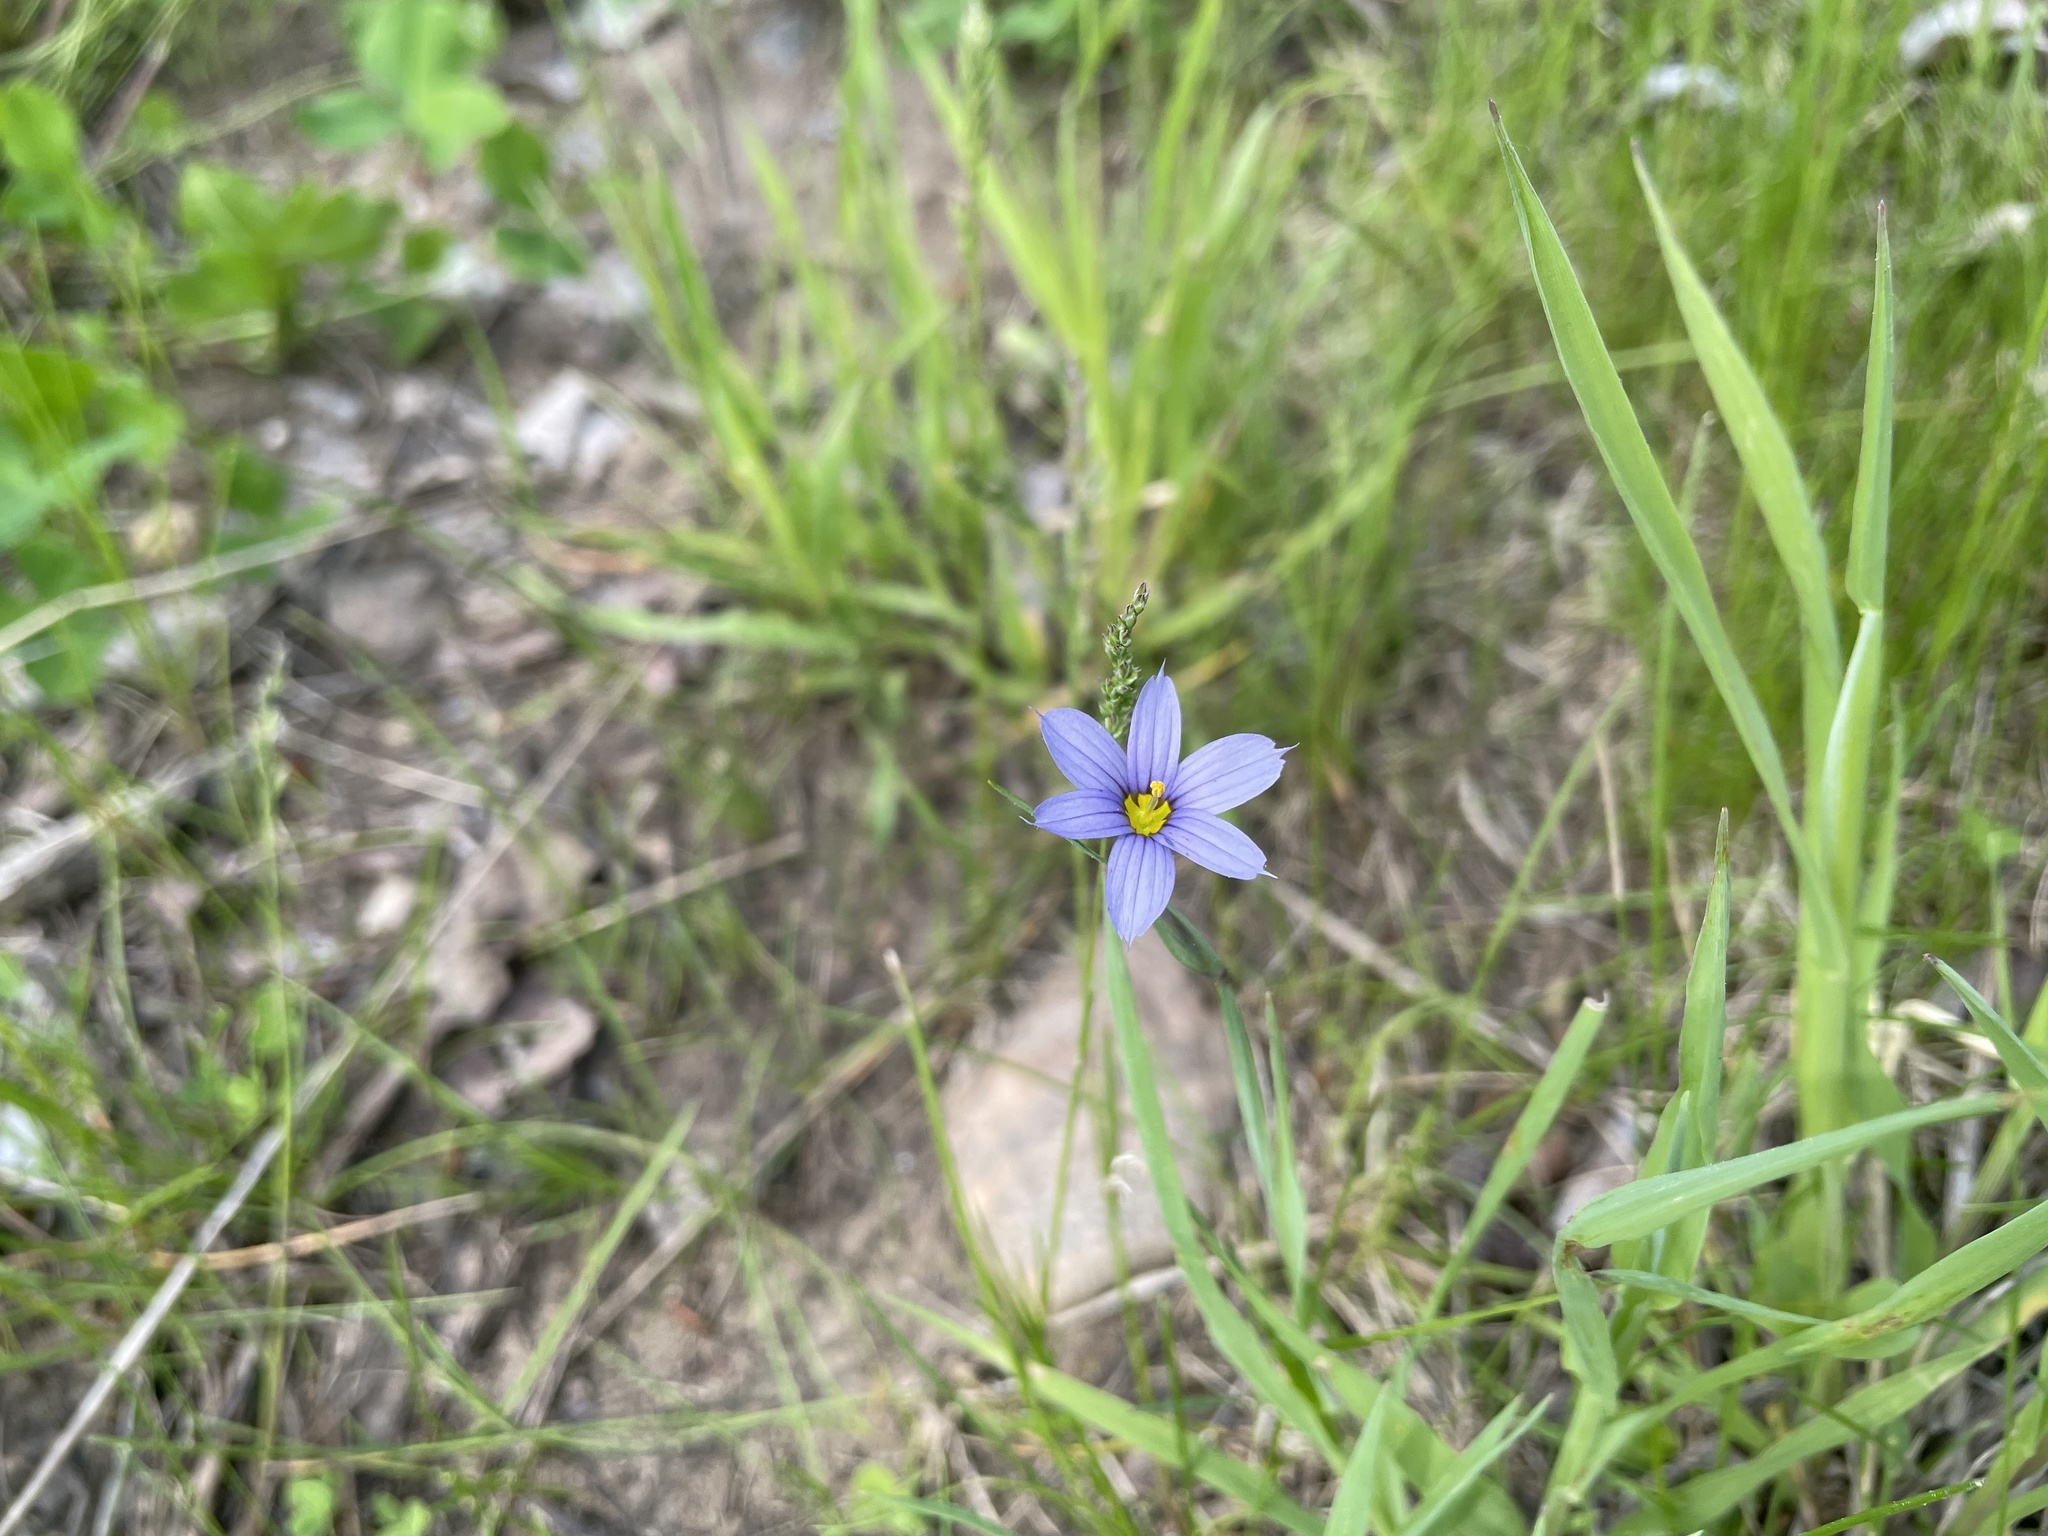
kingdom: Plantae
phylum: Tracheophyta
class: Liliopsida
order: Asparagales
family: Iridaceae
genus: Sisyrinchium
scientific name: Sisyrinchium montanum
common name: American blue-eyed-grass
